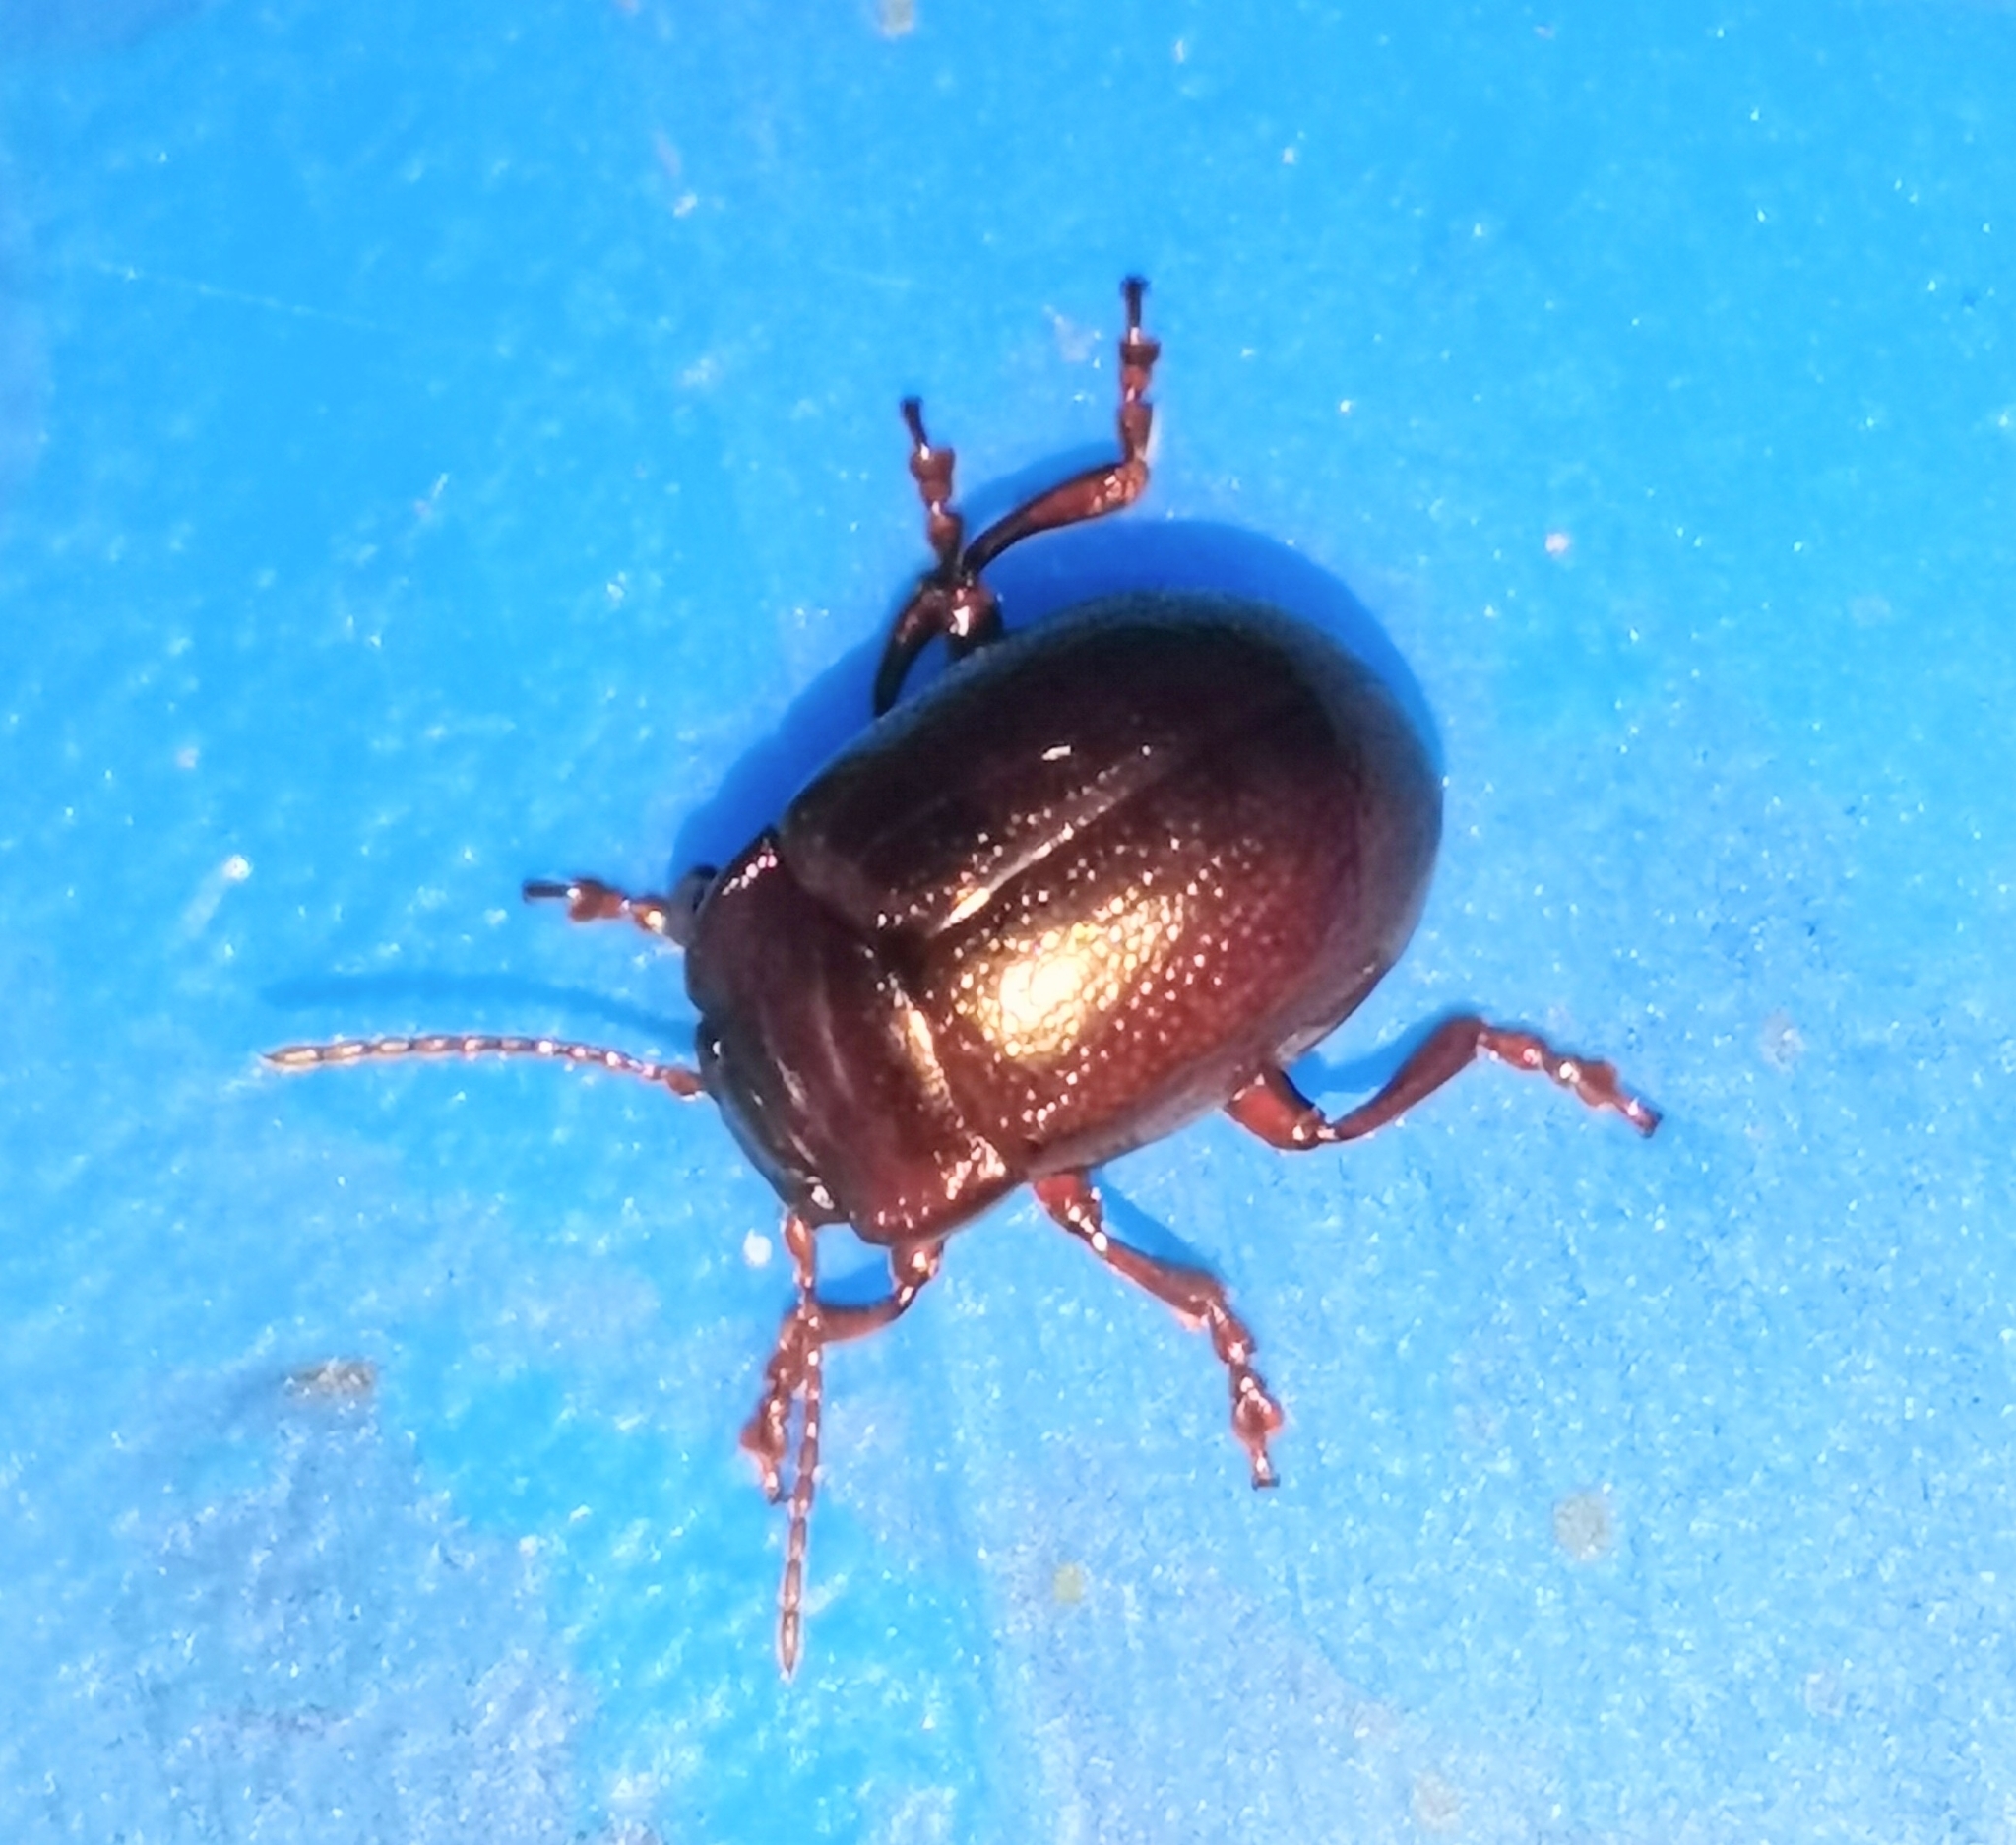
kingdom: Animalia
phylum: Arthropoda
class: Insecta
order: Coleoptera
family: Chrysomelidae
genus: Chrysolina
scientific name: Chrysolina staphylaea
